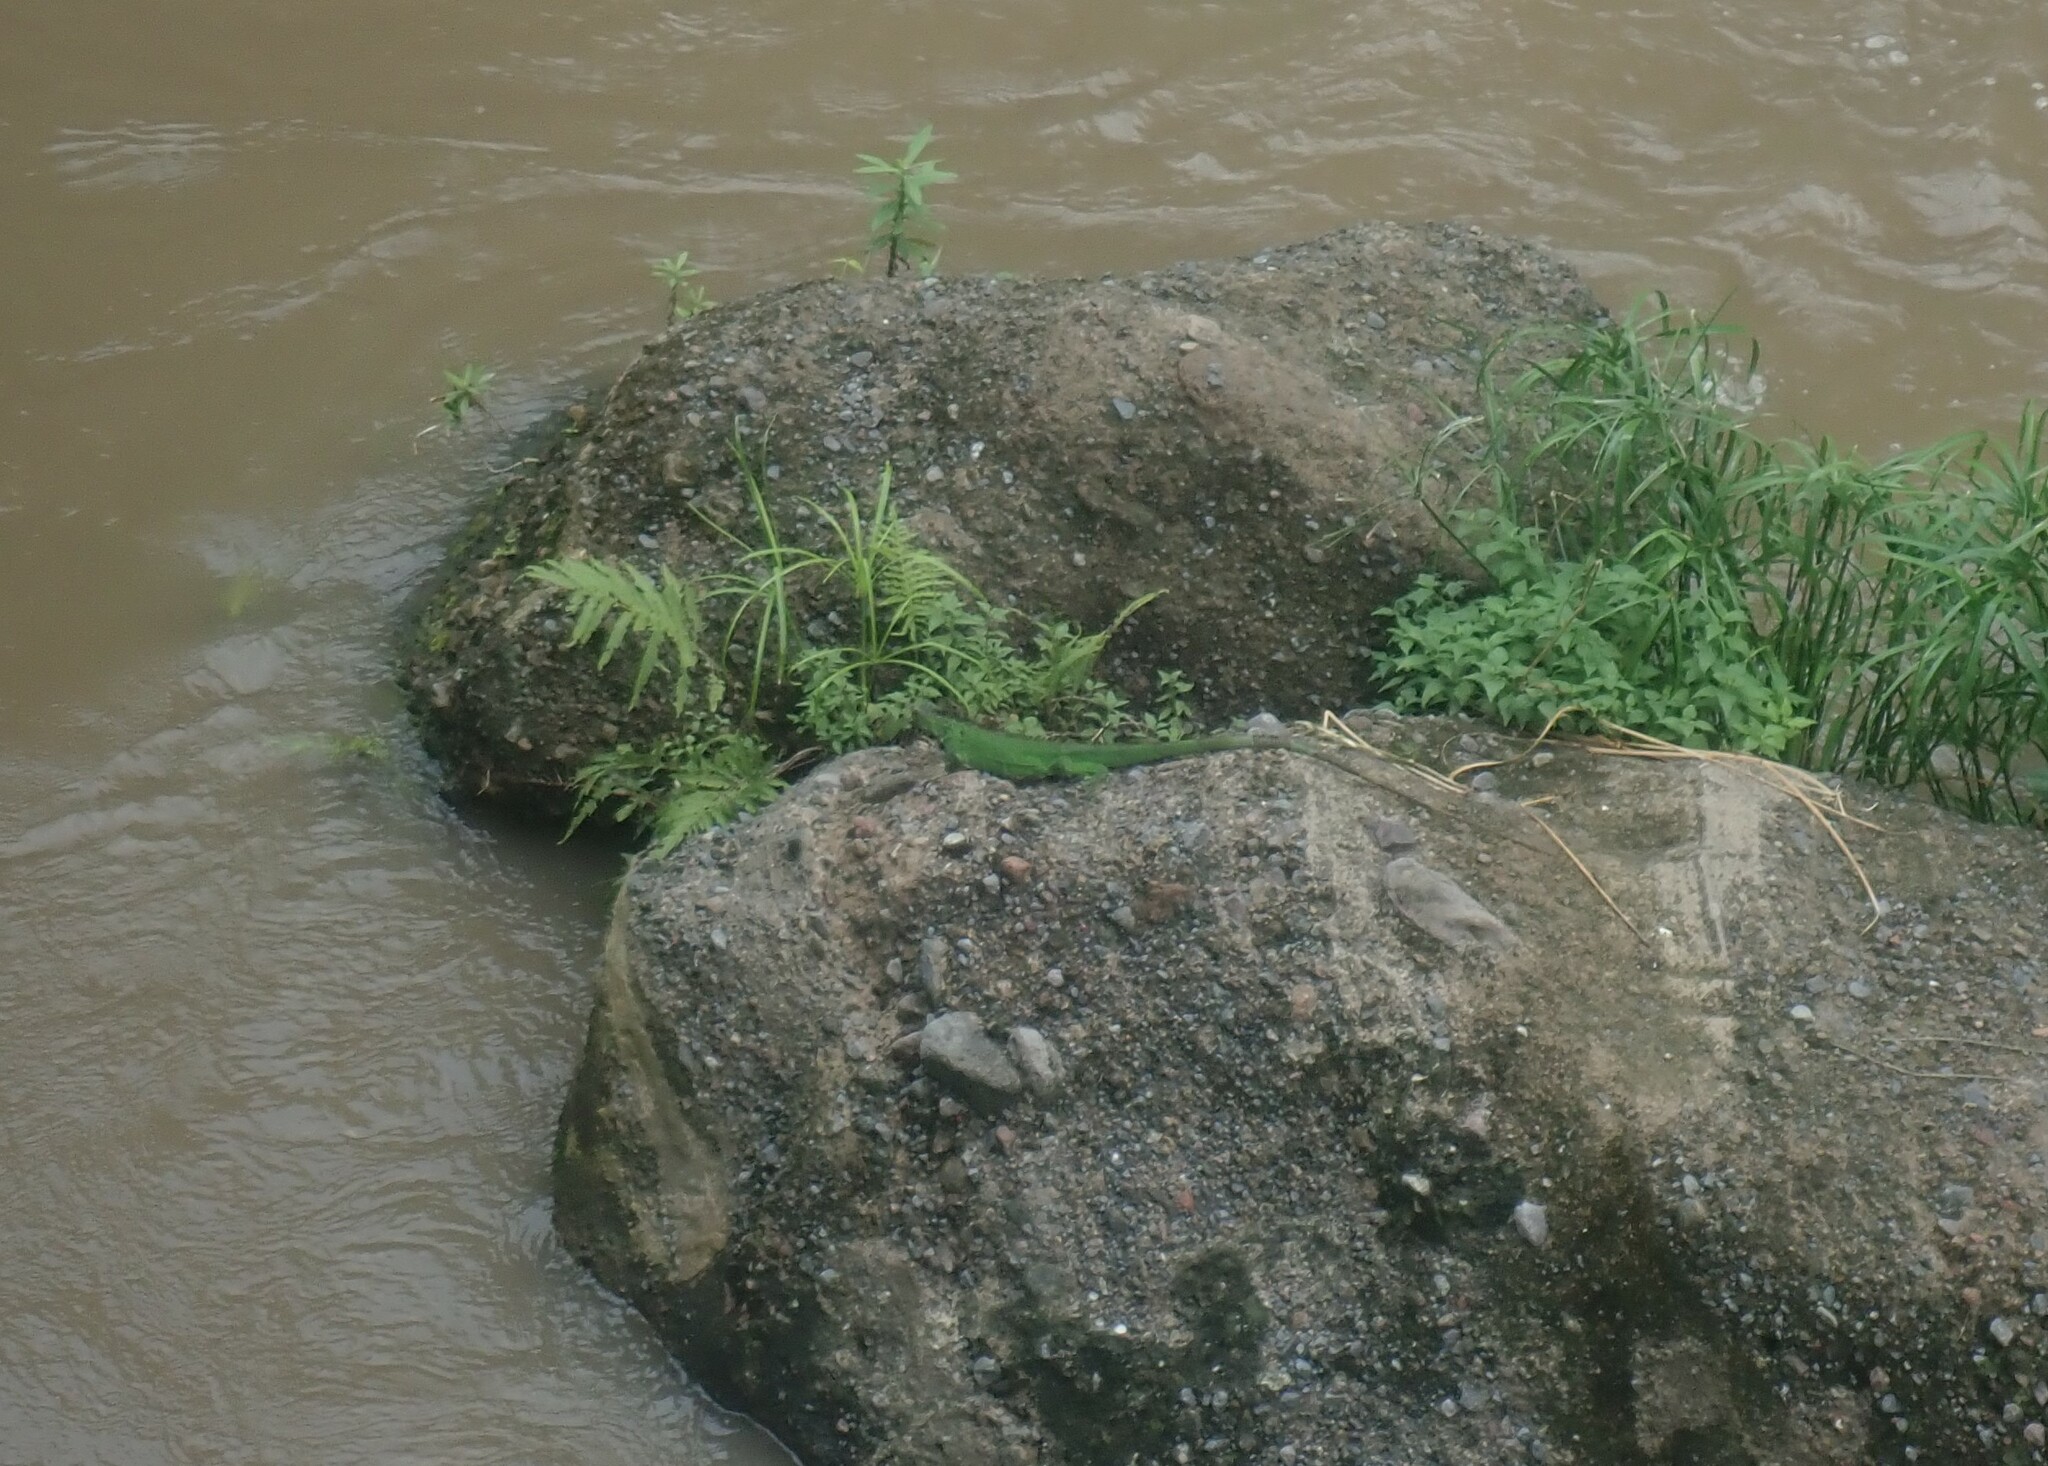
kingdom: Animalia
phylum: Chordata
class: Squamata
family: Iguanidae
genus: Iguana
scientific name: Iguana iguana
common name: Green iguana
